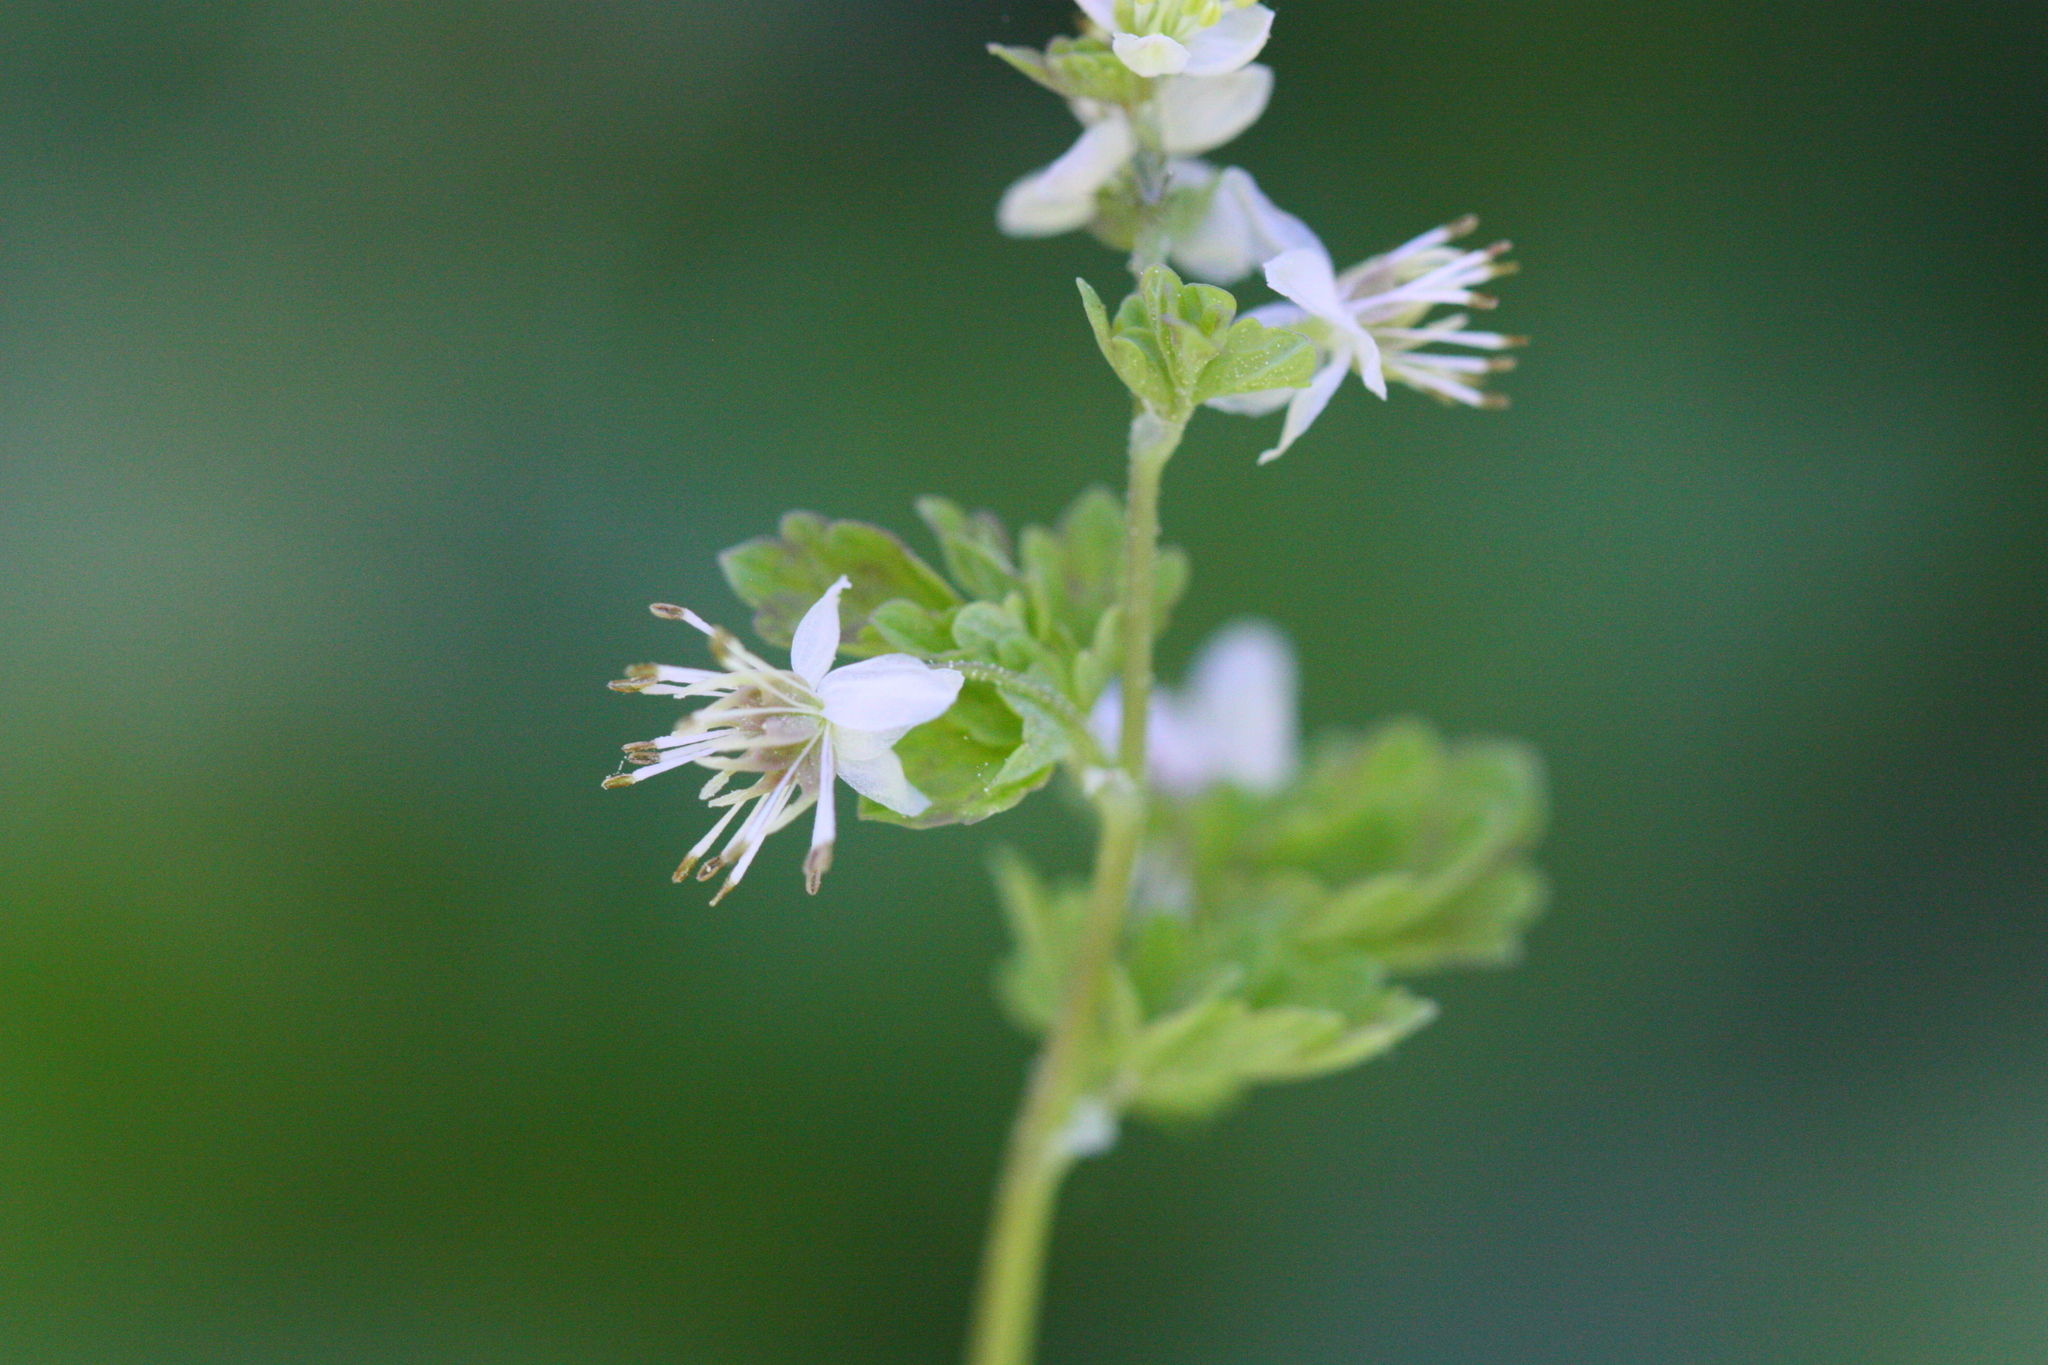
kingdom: Plantae
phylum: Tracheophyta
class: Magnoliopsida
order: Ranunculales
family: Ranunculaceae
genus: Thalictrum
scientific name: Thalictrum sparsiflorum
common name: Mountain meadow-rue
